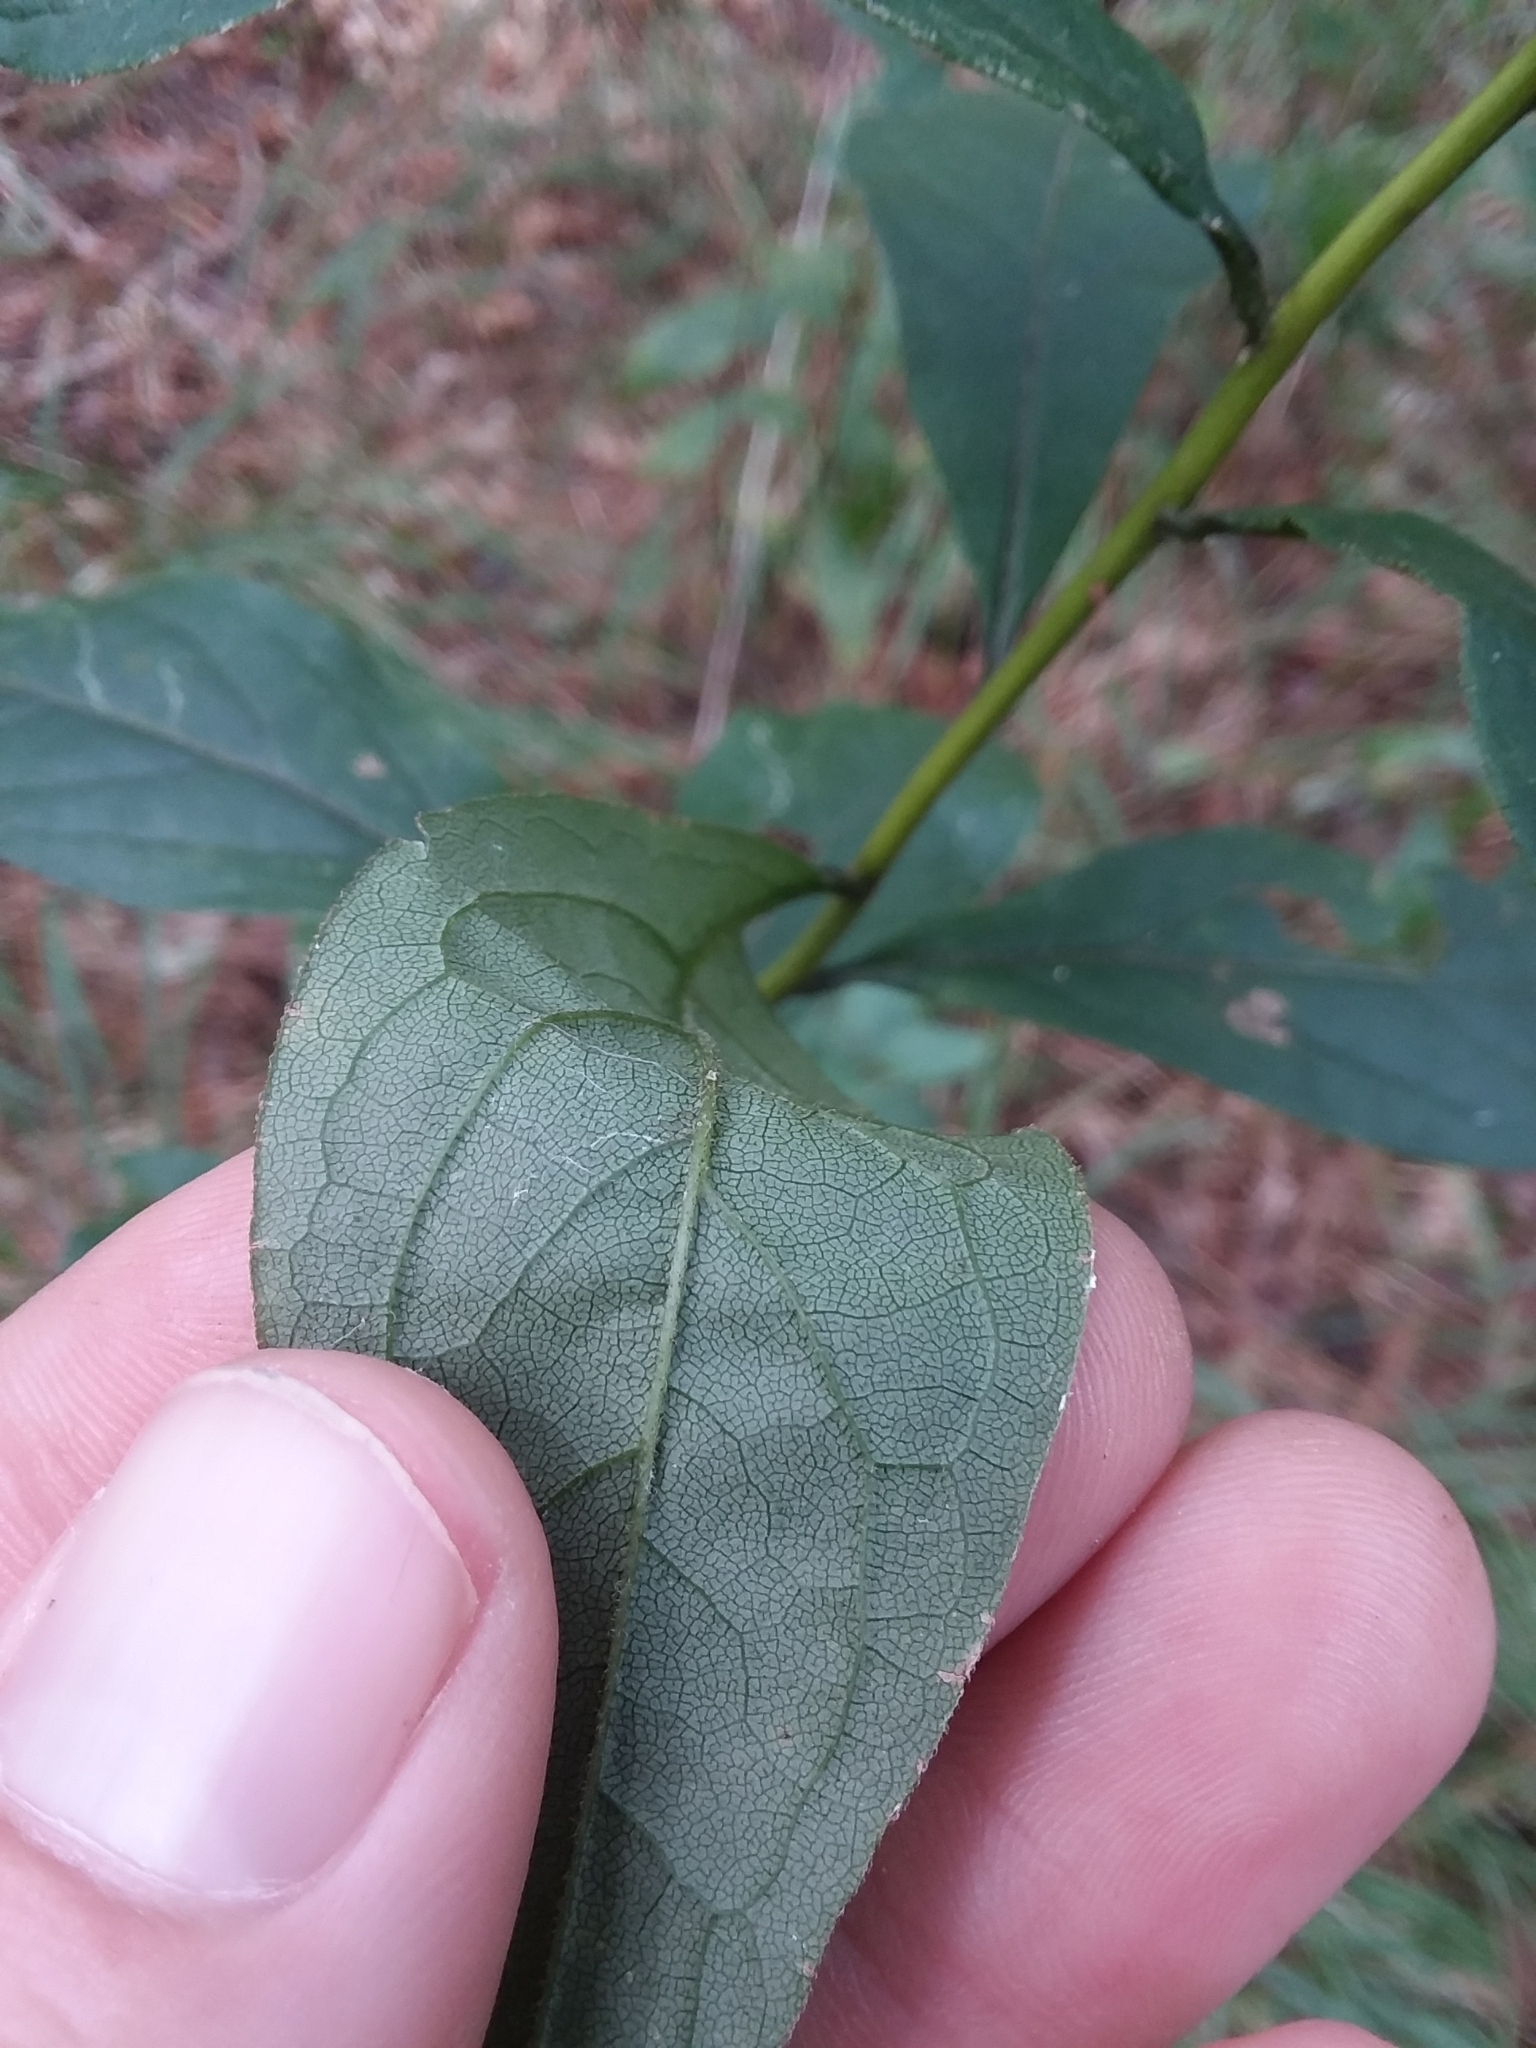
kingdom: Plantae
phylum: Tracheophyta
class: Magnoliopsida
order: Asterales
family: Asteraceae
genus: Doellingeria
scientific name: Doellingeria sericocarpoides
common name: Southern tall flat-top aster
